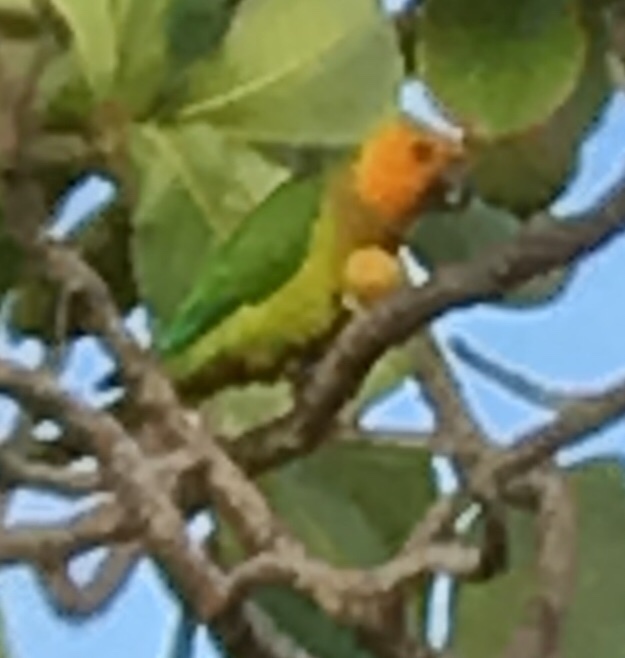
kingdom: Animalia
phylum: Chordata
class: Aves
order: Psittaciformes
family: Psittacidae
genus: Aratinga
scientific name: Aratinga pertinax
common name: Brown-throated parakeet
